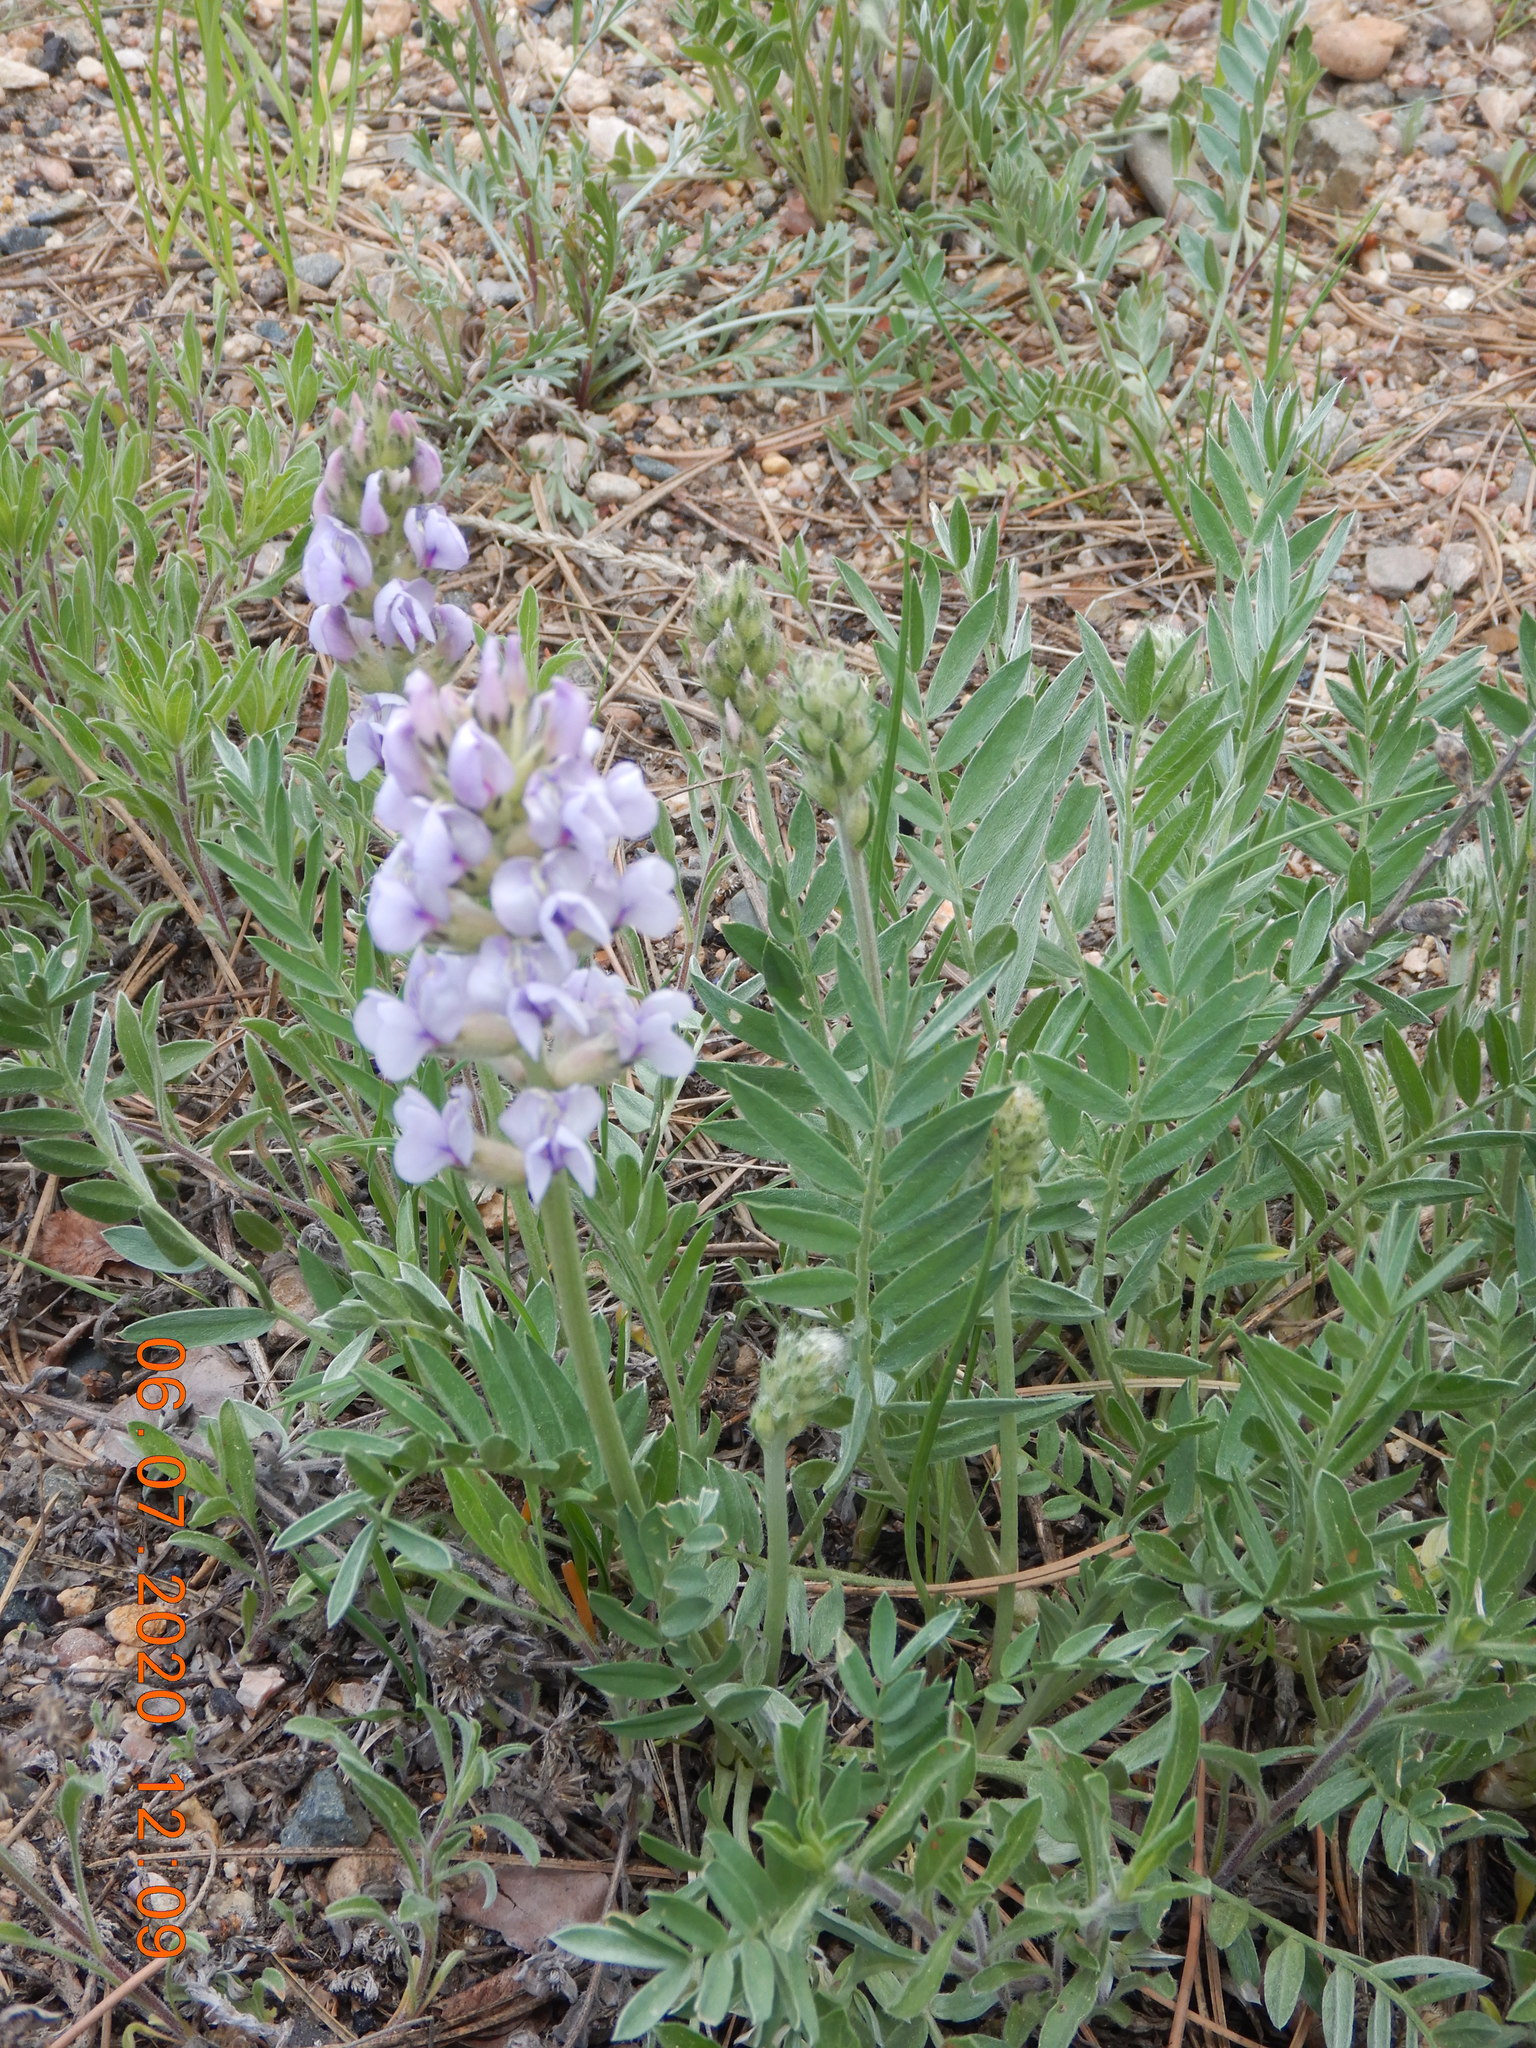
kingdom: Plantae
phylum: Tracheophyta
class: Magnoliopsida
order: Fabales
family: Fabaceae
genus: Oxytropis
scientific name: Oxytropis sericea
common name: Silky locoweed
